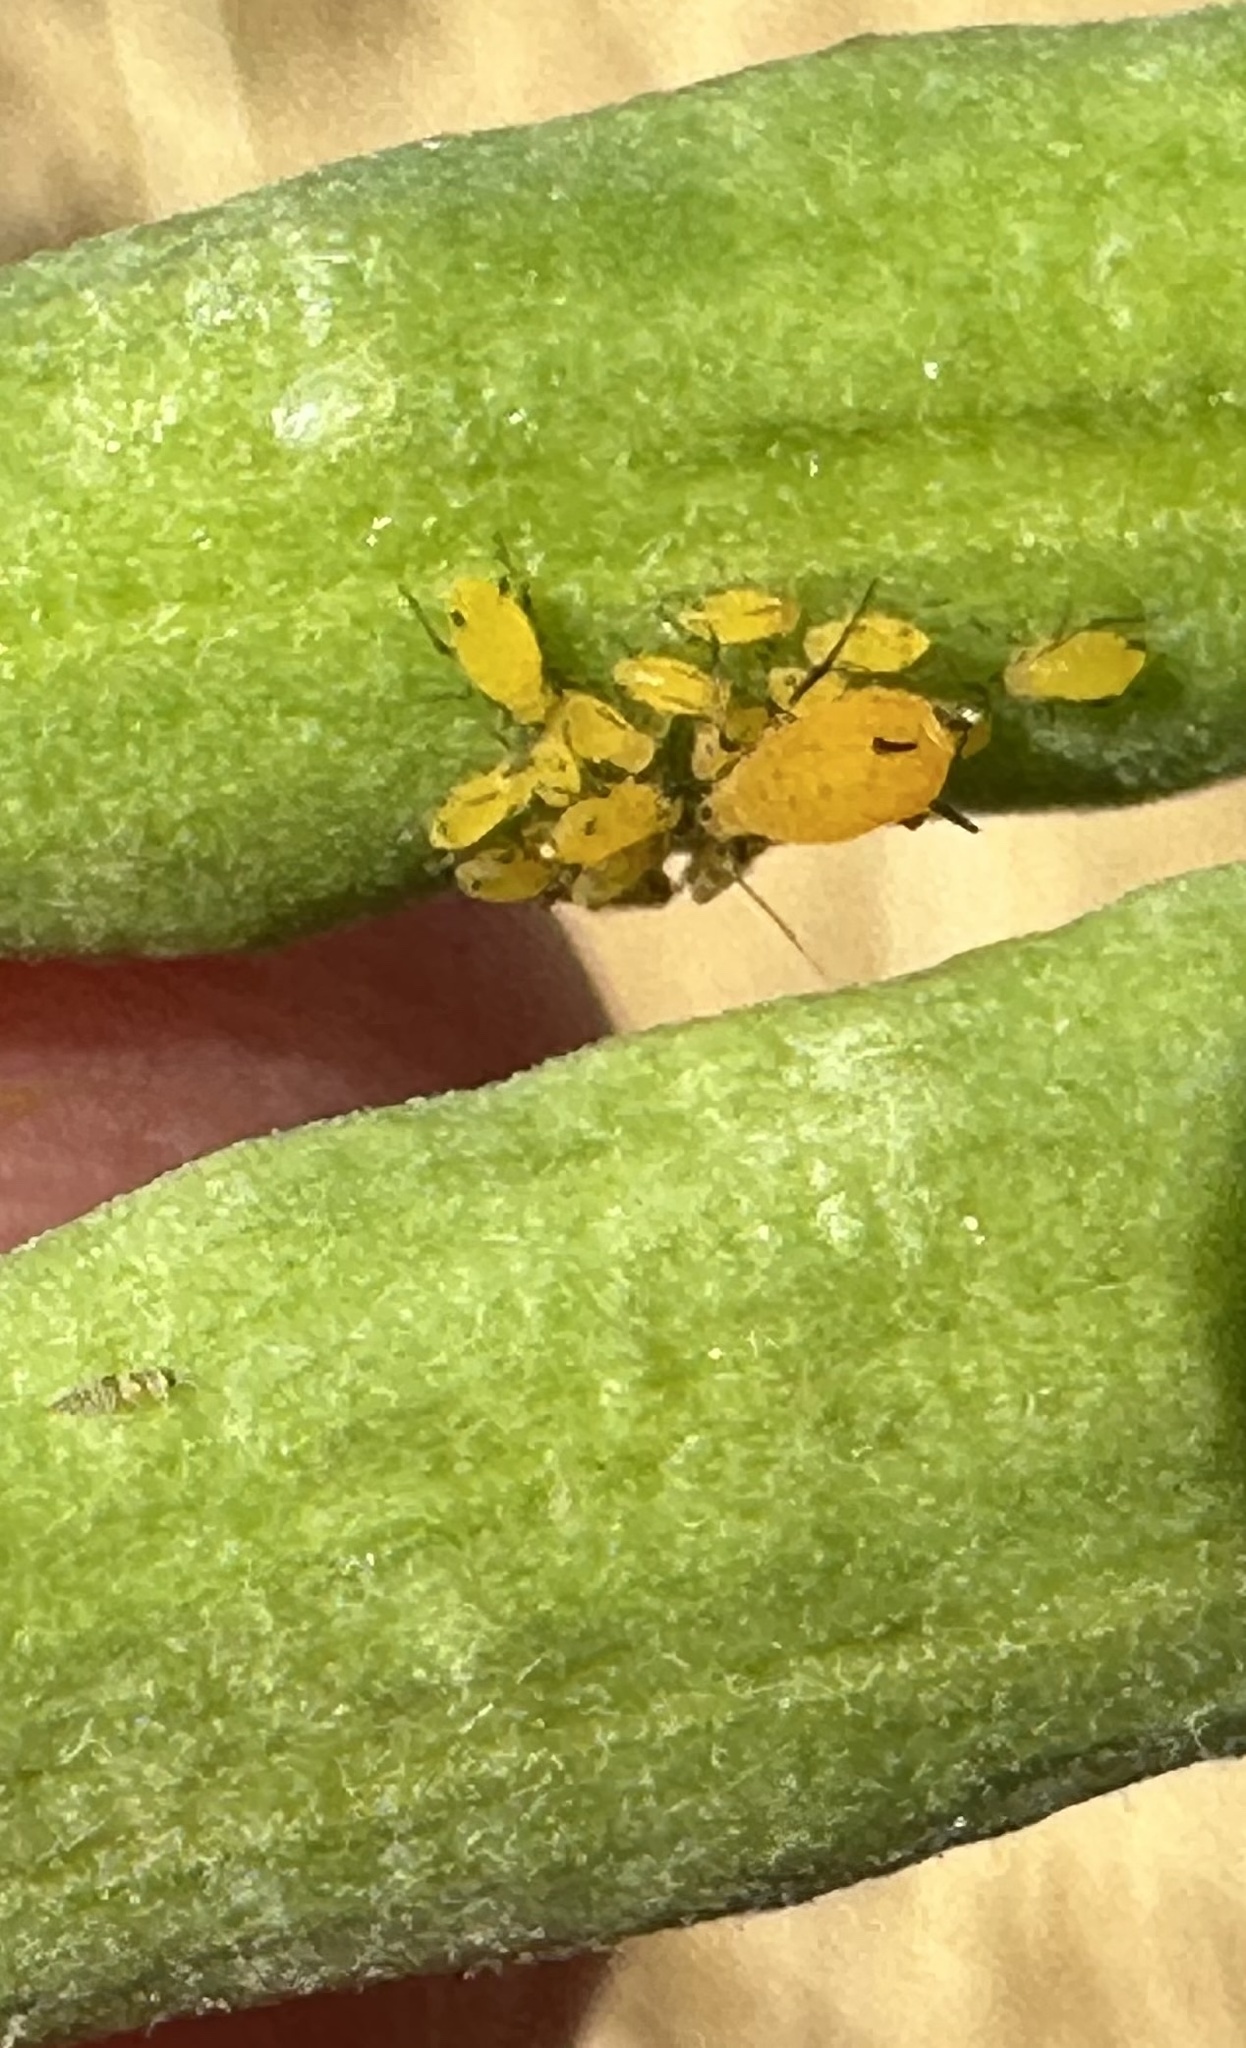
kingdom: Animalia
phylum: Arthropoda
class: Insecta
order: Hemiptera
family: Aphididae
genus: Aphis
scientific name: Aphis nerii
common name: Oleander aphid
